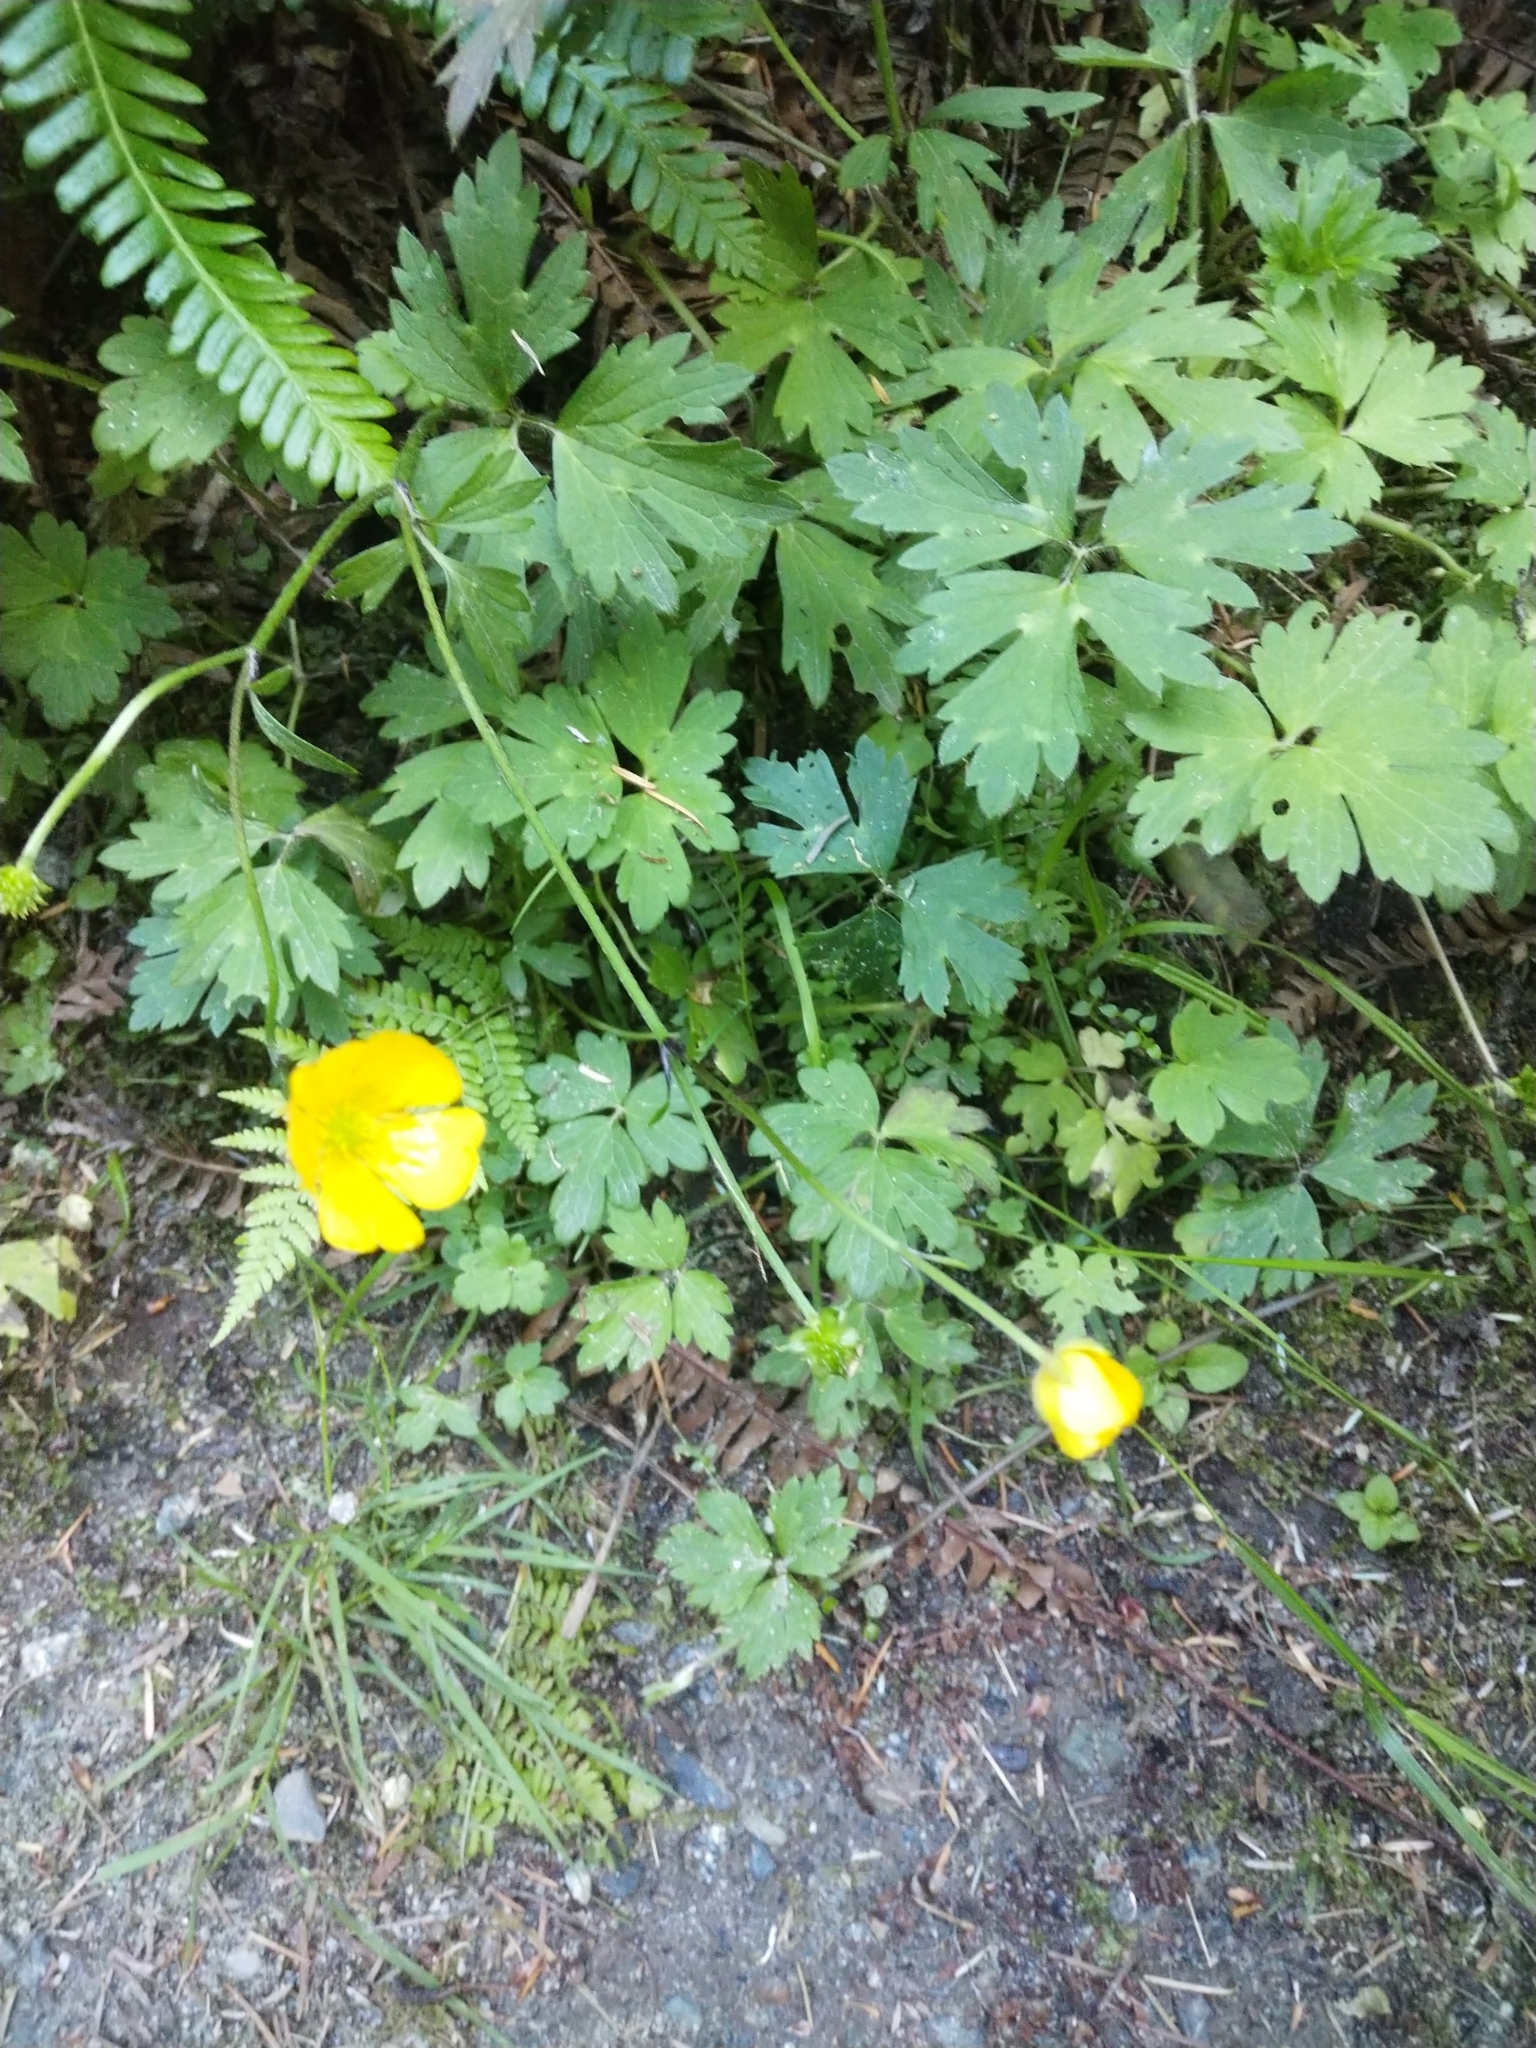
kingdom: Plantae
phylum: Tracheophyta
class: Magnoliopsida
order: Ranunculales
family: Ranunculaceae
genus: Ranunculus
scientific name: Ranunculus repens
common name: Creeping buttercup
